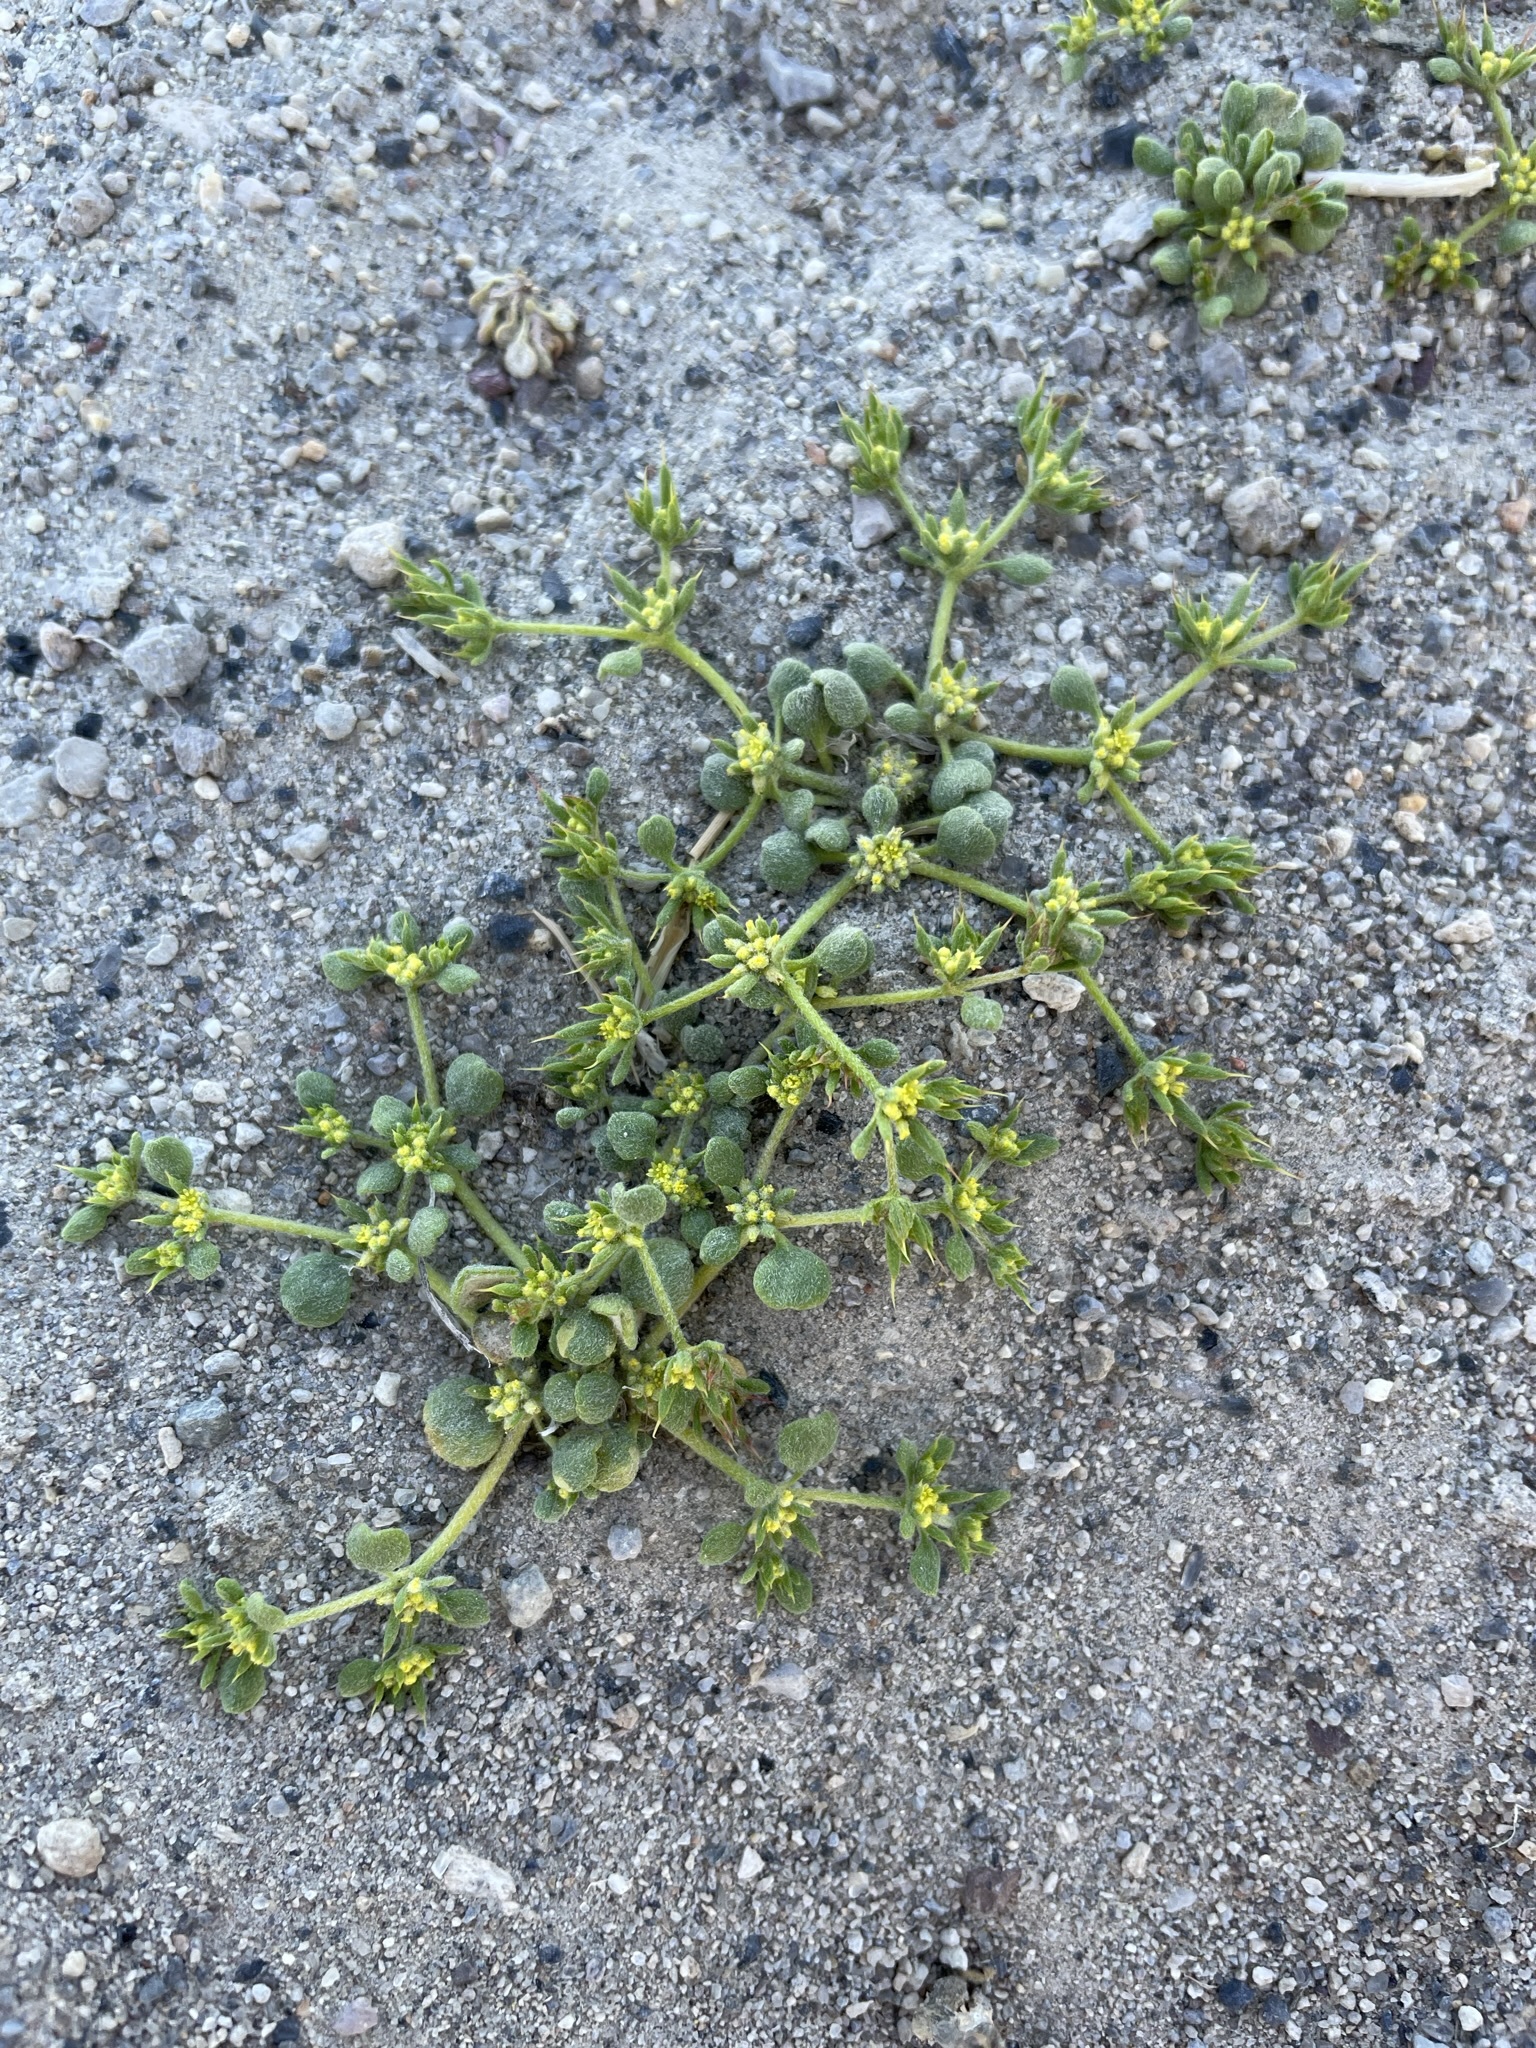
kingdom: Plantae
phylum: Tracheophyta
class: Magnoliopsida
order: Caryophyllales
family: Polygonaceae
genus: Goodmania
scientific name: Goodmania luteola
